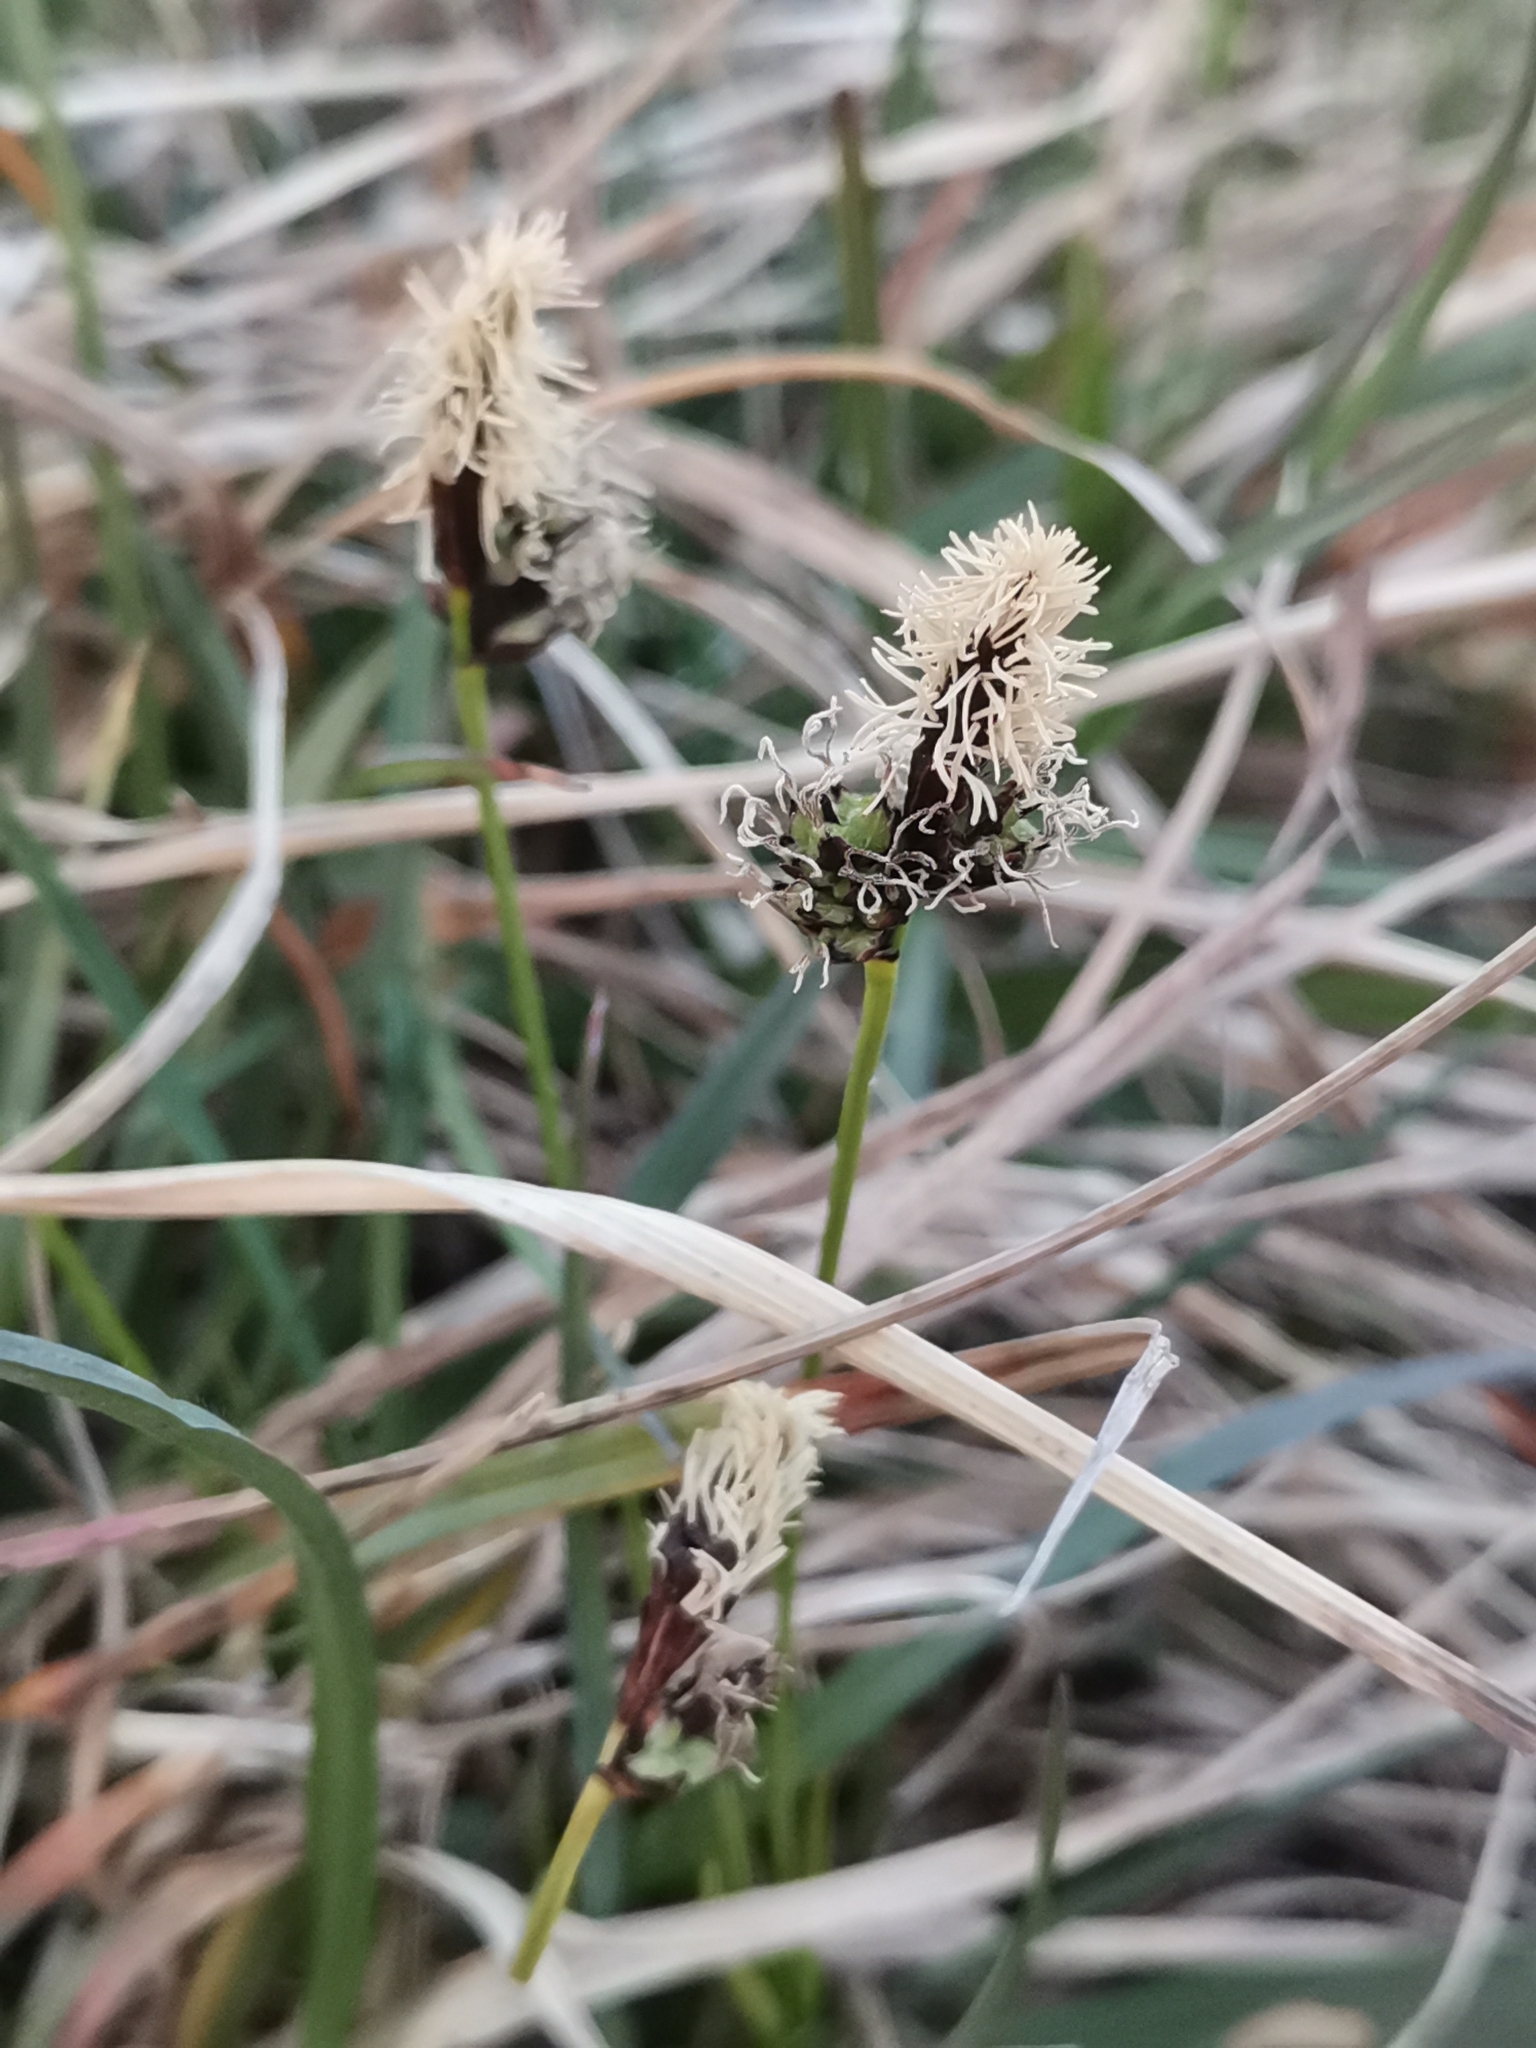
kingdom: Plantae
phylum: Tracheophyta
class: Liliopsida
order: Poales
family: Cyperaceae
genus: Carex
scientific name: Carex montana
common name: Soft-leaved sedge
